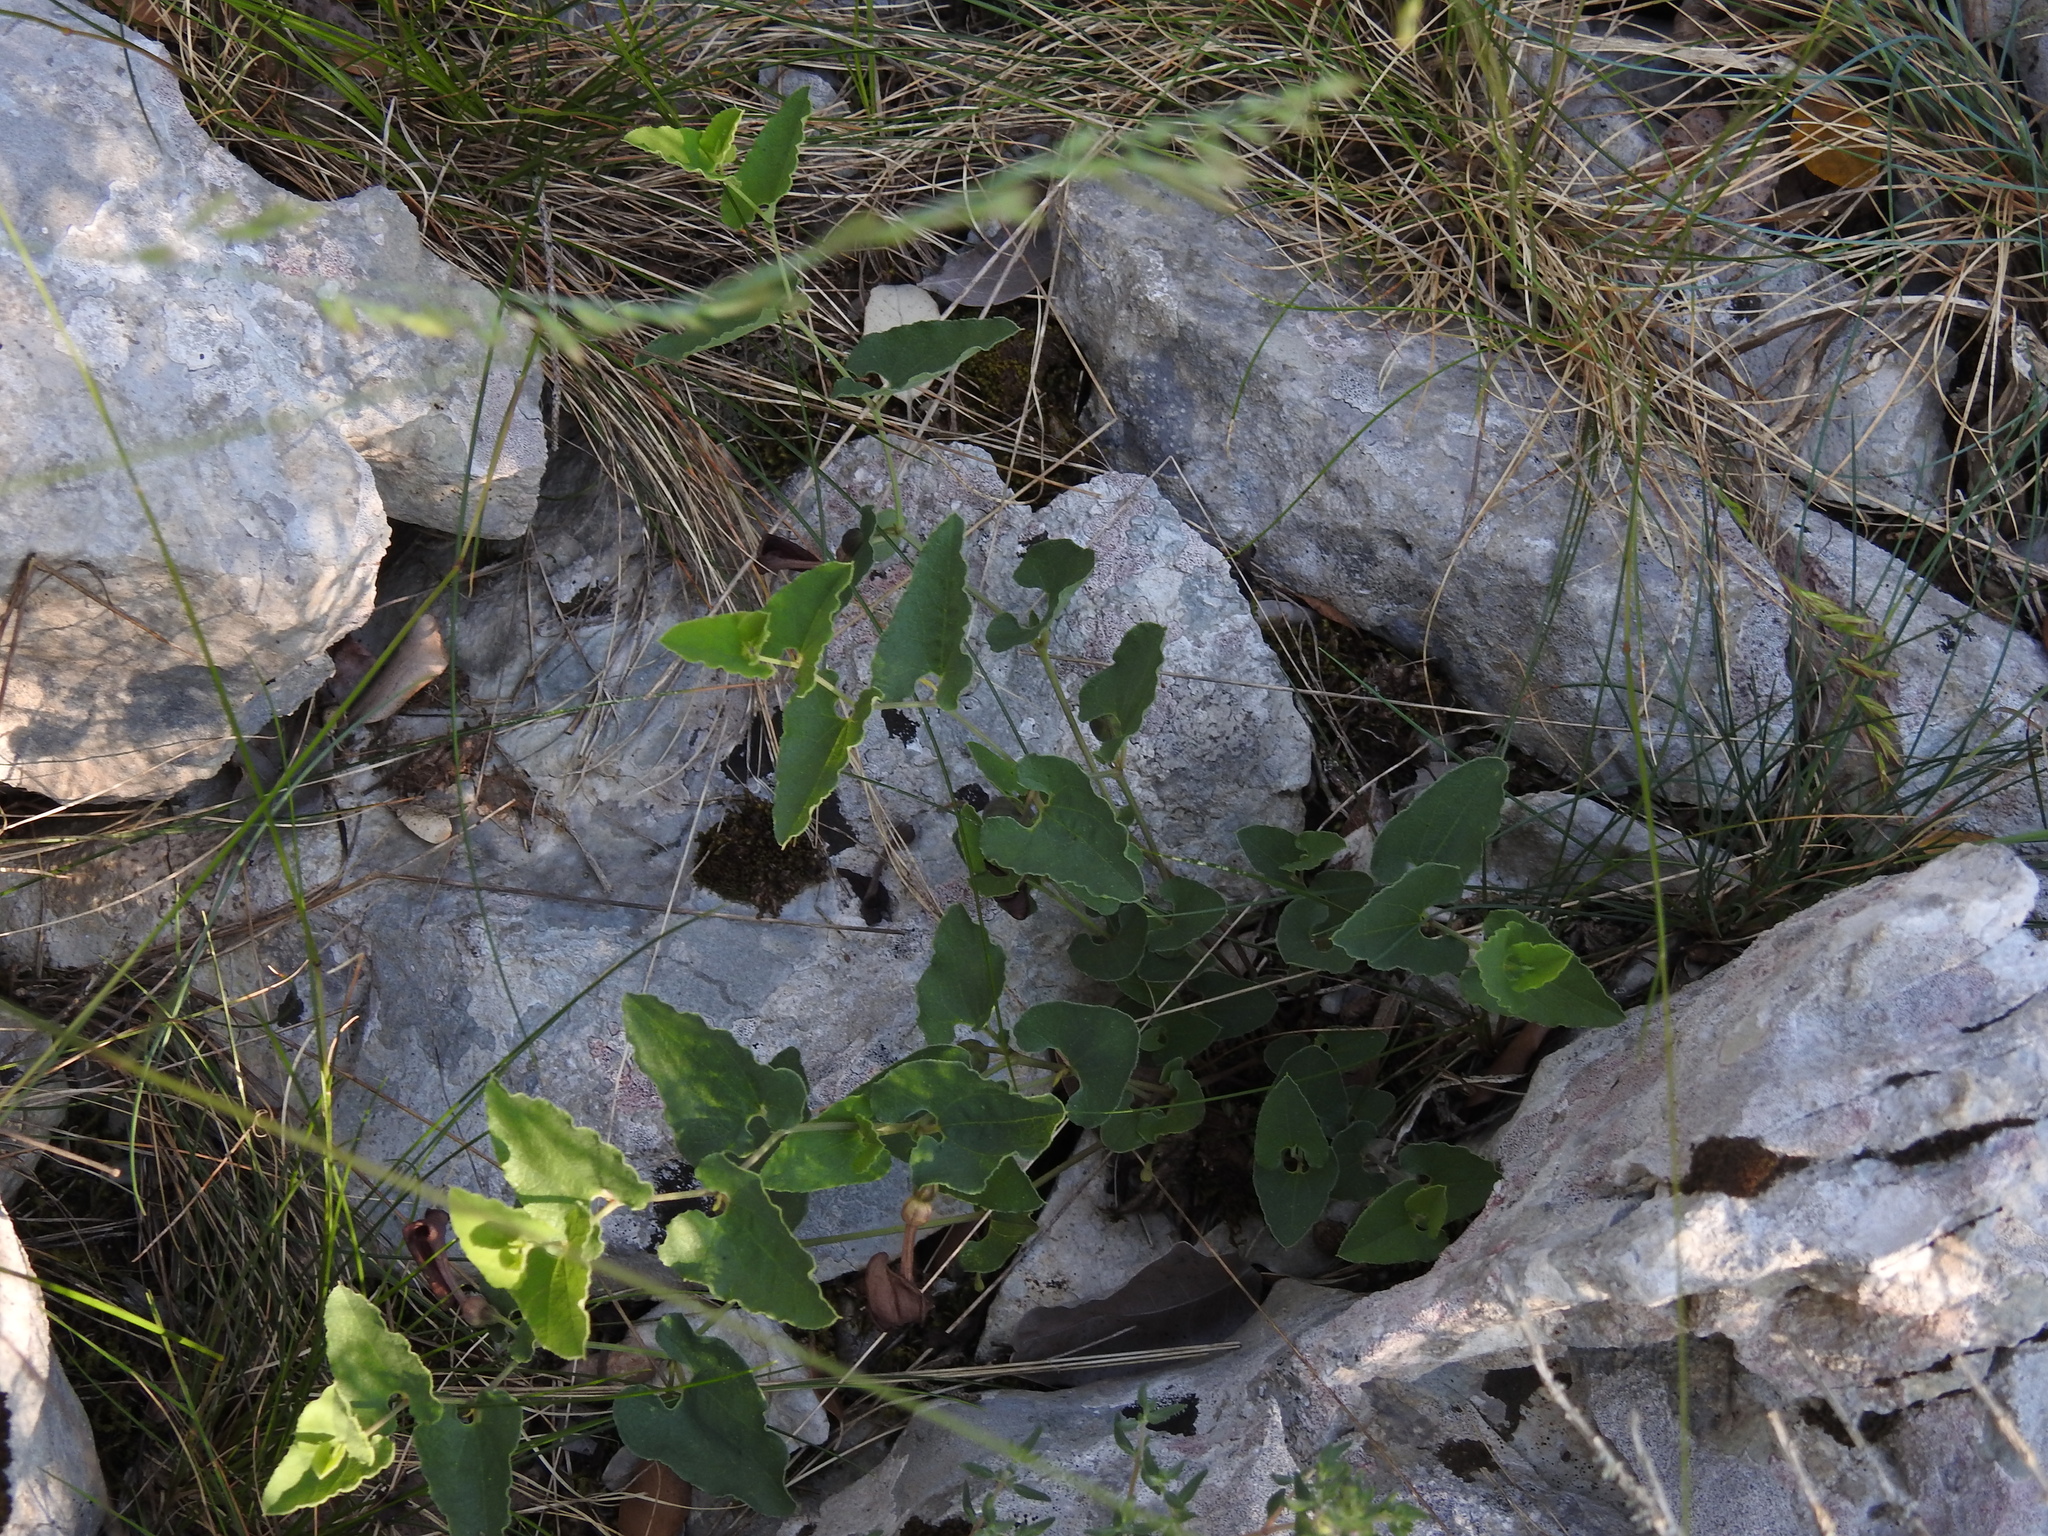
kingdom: Plantae
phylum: Tracheophyta
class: Magnoliopsida
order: Piperales
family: Aristolochiaceae
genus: Aristolochia
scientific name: Aristolochia pistolochia
